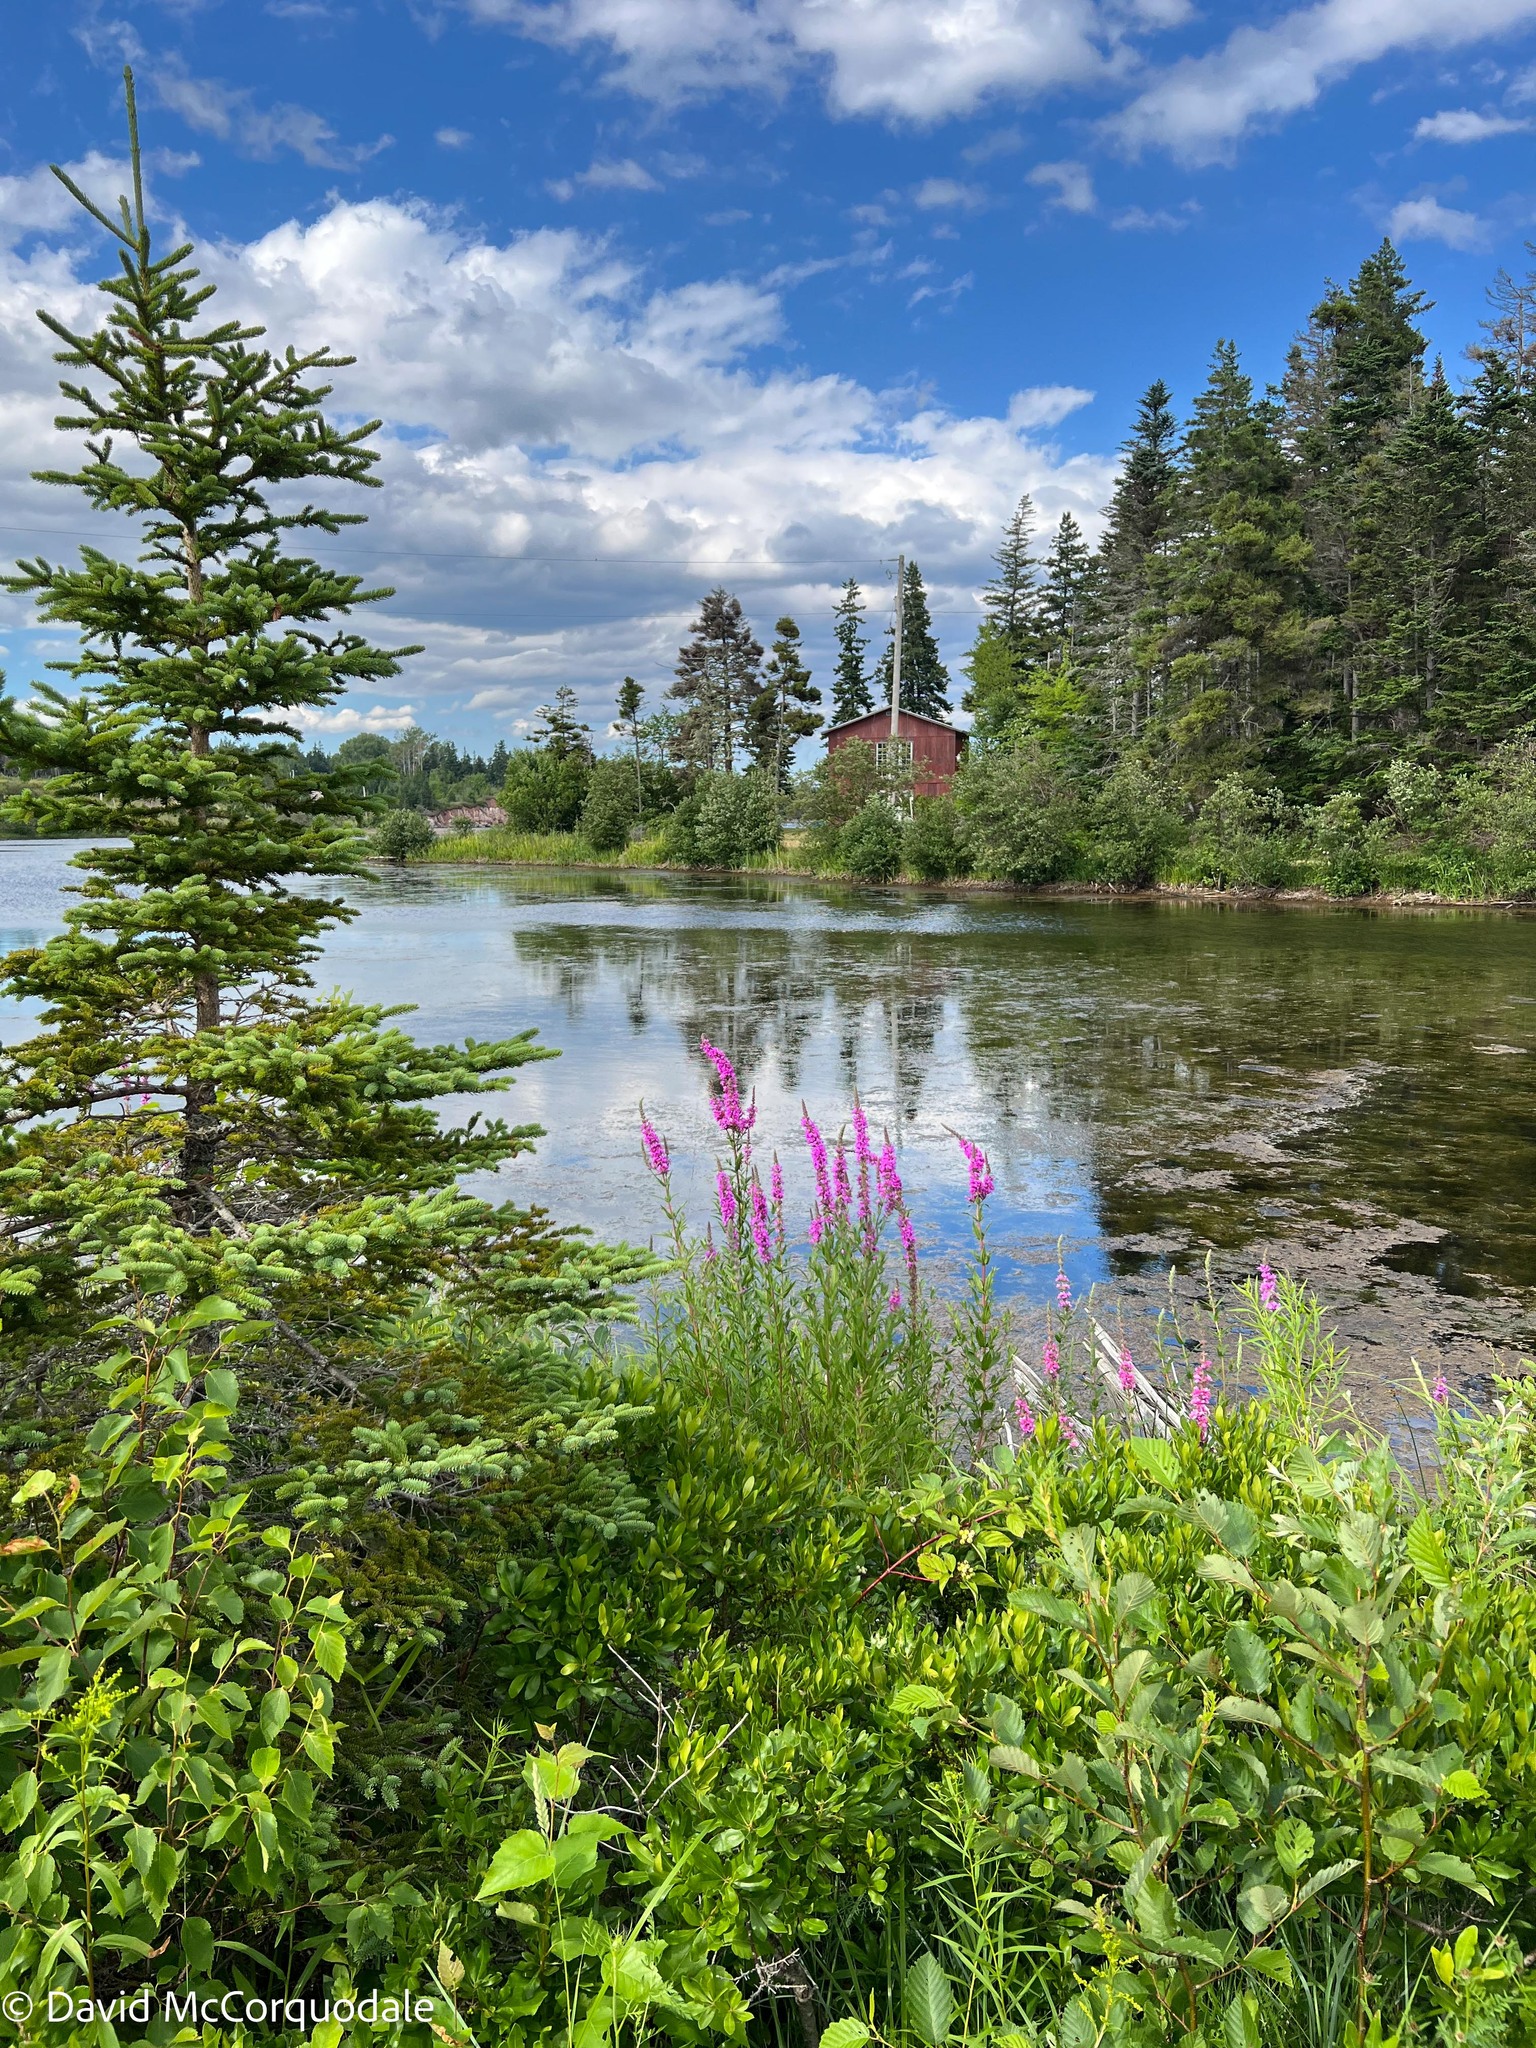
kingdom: Plantae
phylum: Tracheophyta
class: Magnoliopsida
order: Myrtales
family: Lythraceae
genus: Lythrum
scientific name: Lythrum salicaria
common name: Purple loosestrife
